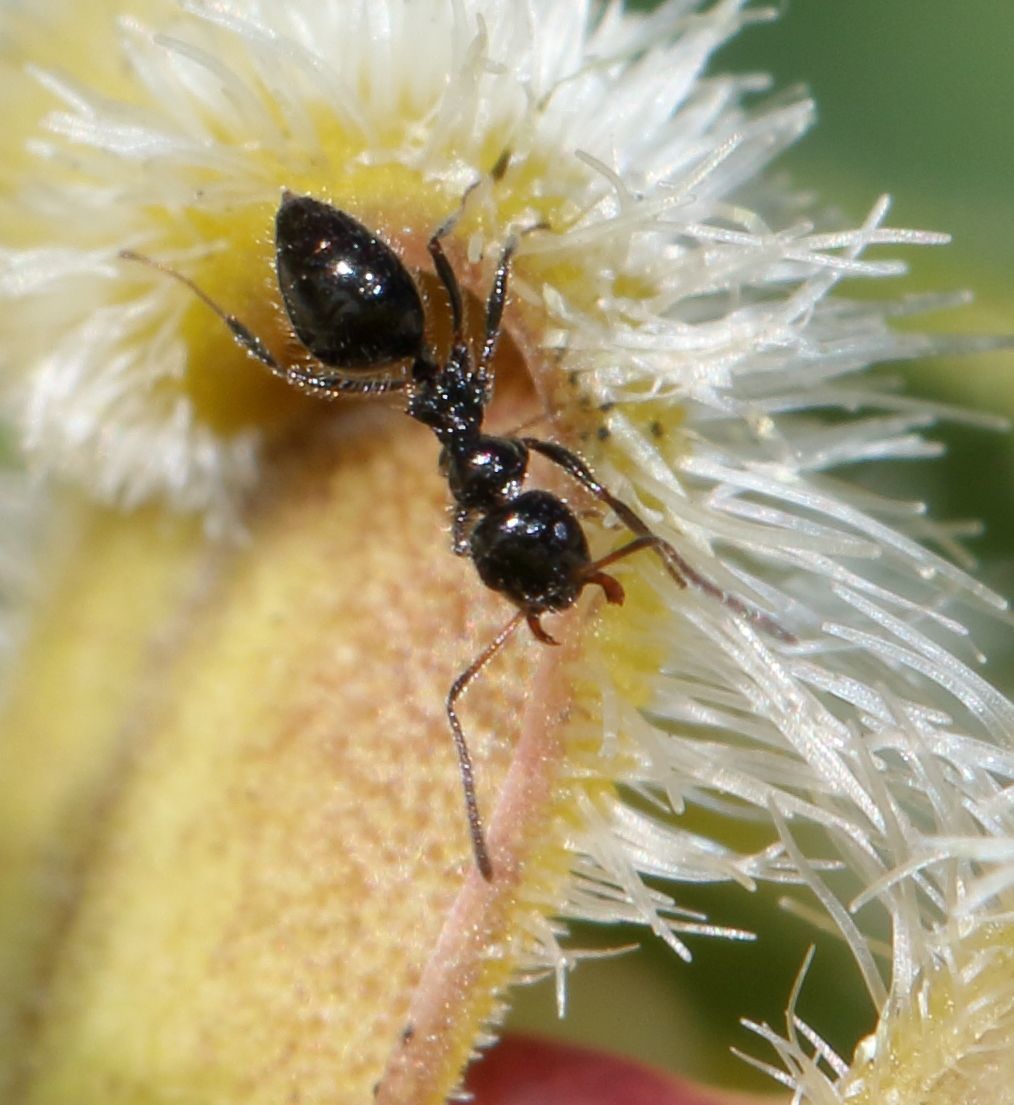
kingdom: Animalia
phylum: Arthropoda
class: Insecta
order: Hymenoptera
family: Formicidae
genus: Lepisiota
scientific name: Lepisiota crinita
